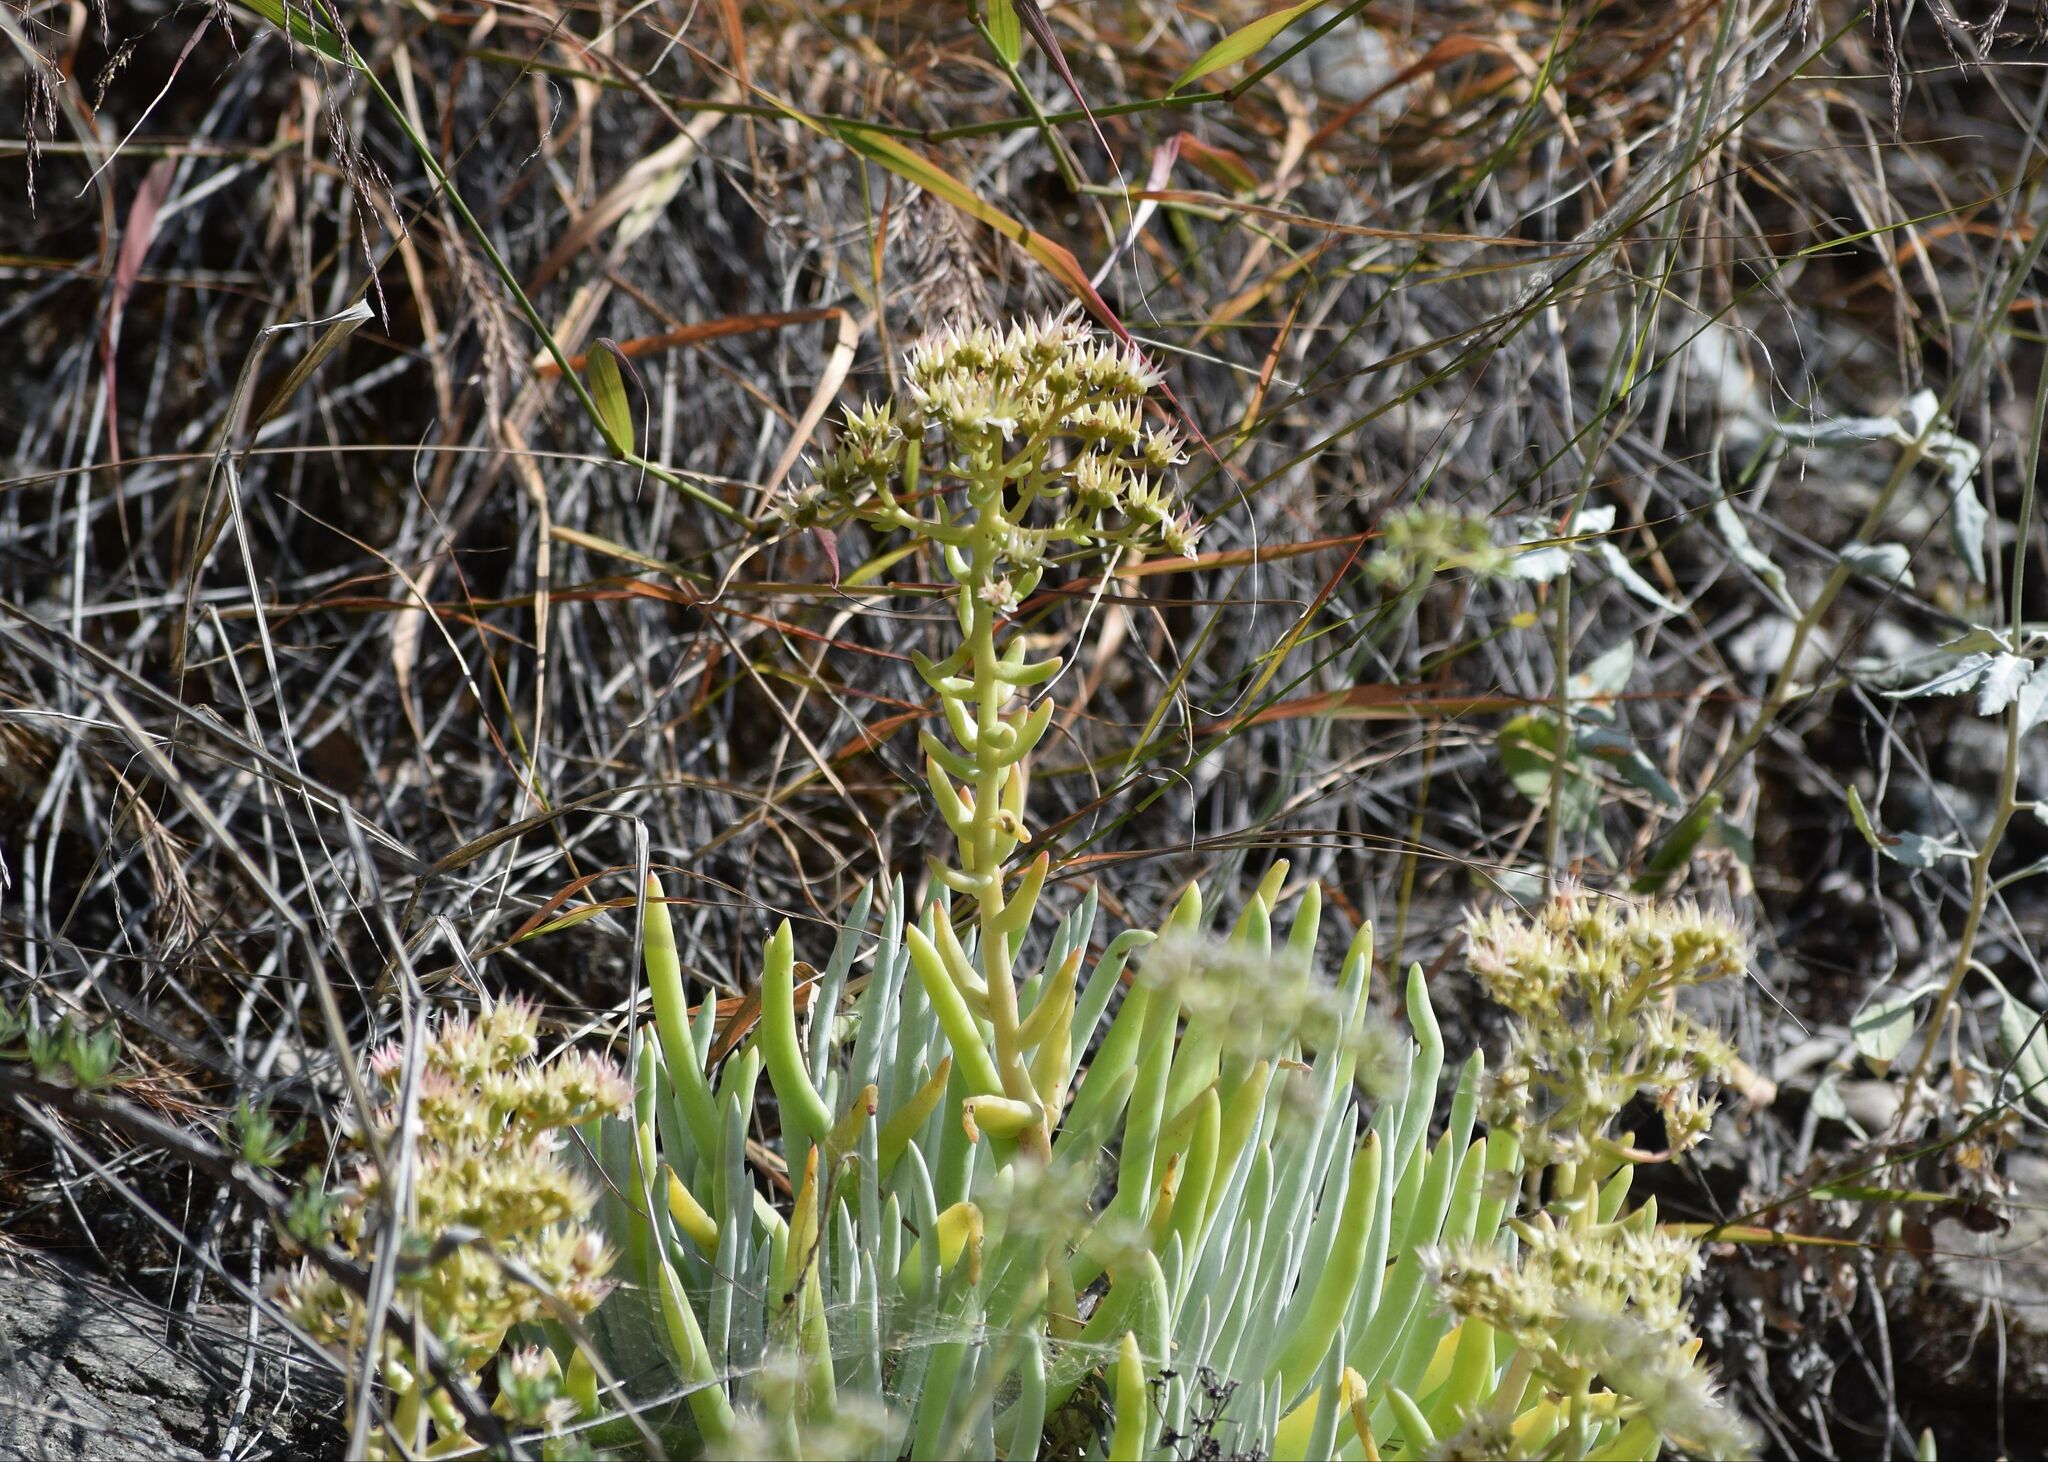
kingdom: Plantae
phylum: Tracheophyta
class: Magnoliopsida
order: Saxifragales
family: Crassulaceae
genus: Dudleya
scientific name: Dudleya densiflora
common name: San gabriel mountains dudleya
